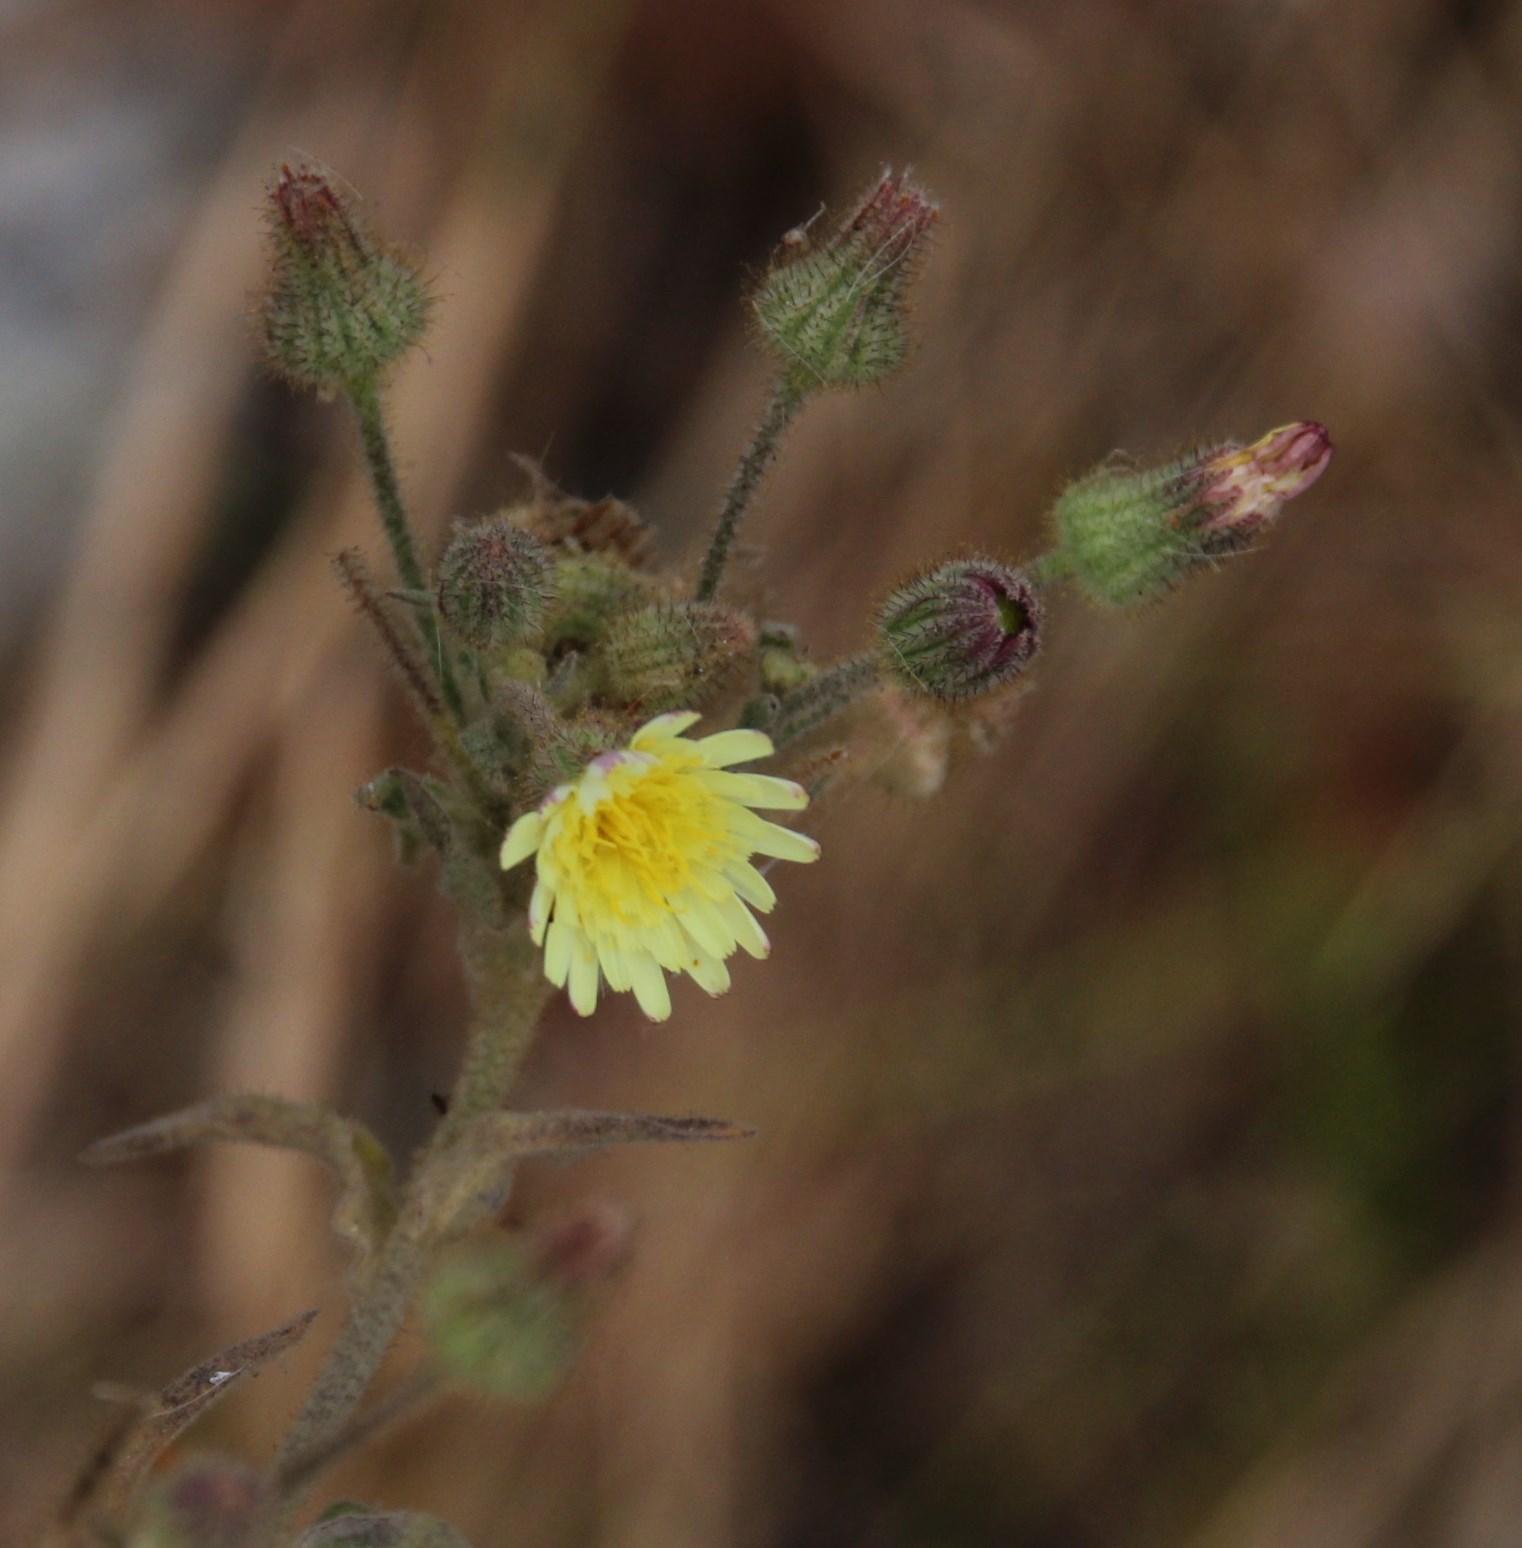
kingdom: Plantae
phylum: Tracheophyta
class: Magnoliopsida
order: Asterales
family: Asteraceae
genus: Andryala
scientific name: Andryala integrifolia
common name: Common andryala
